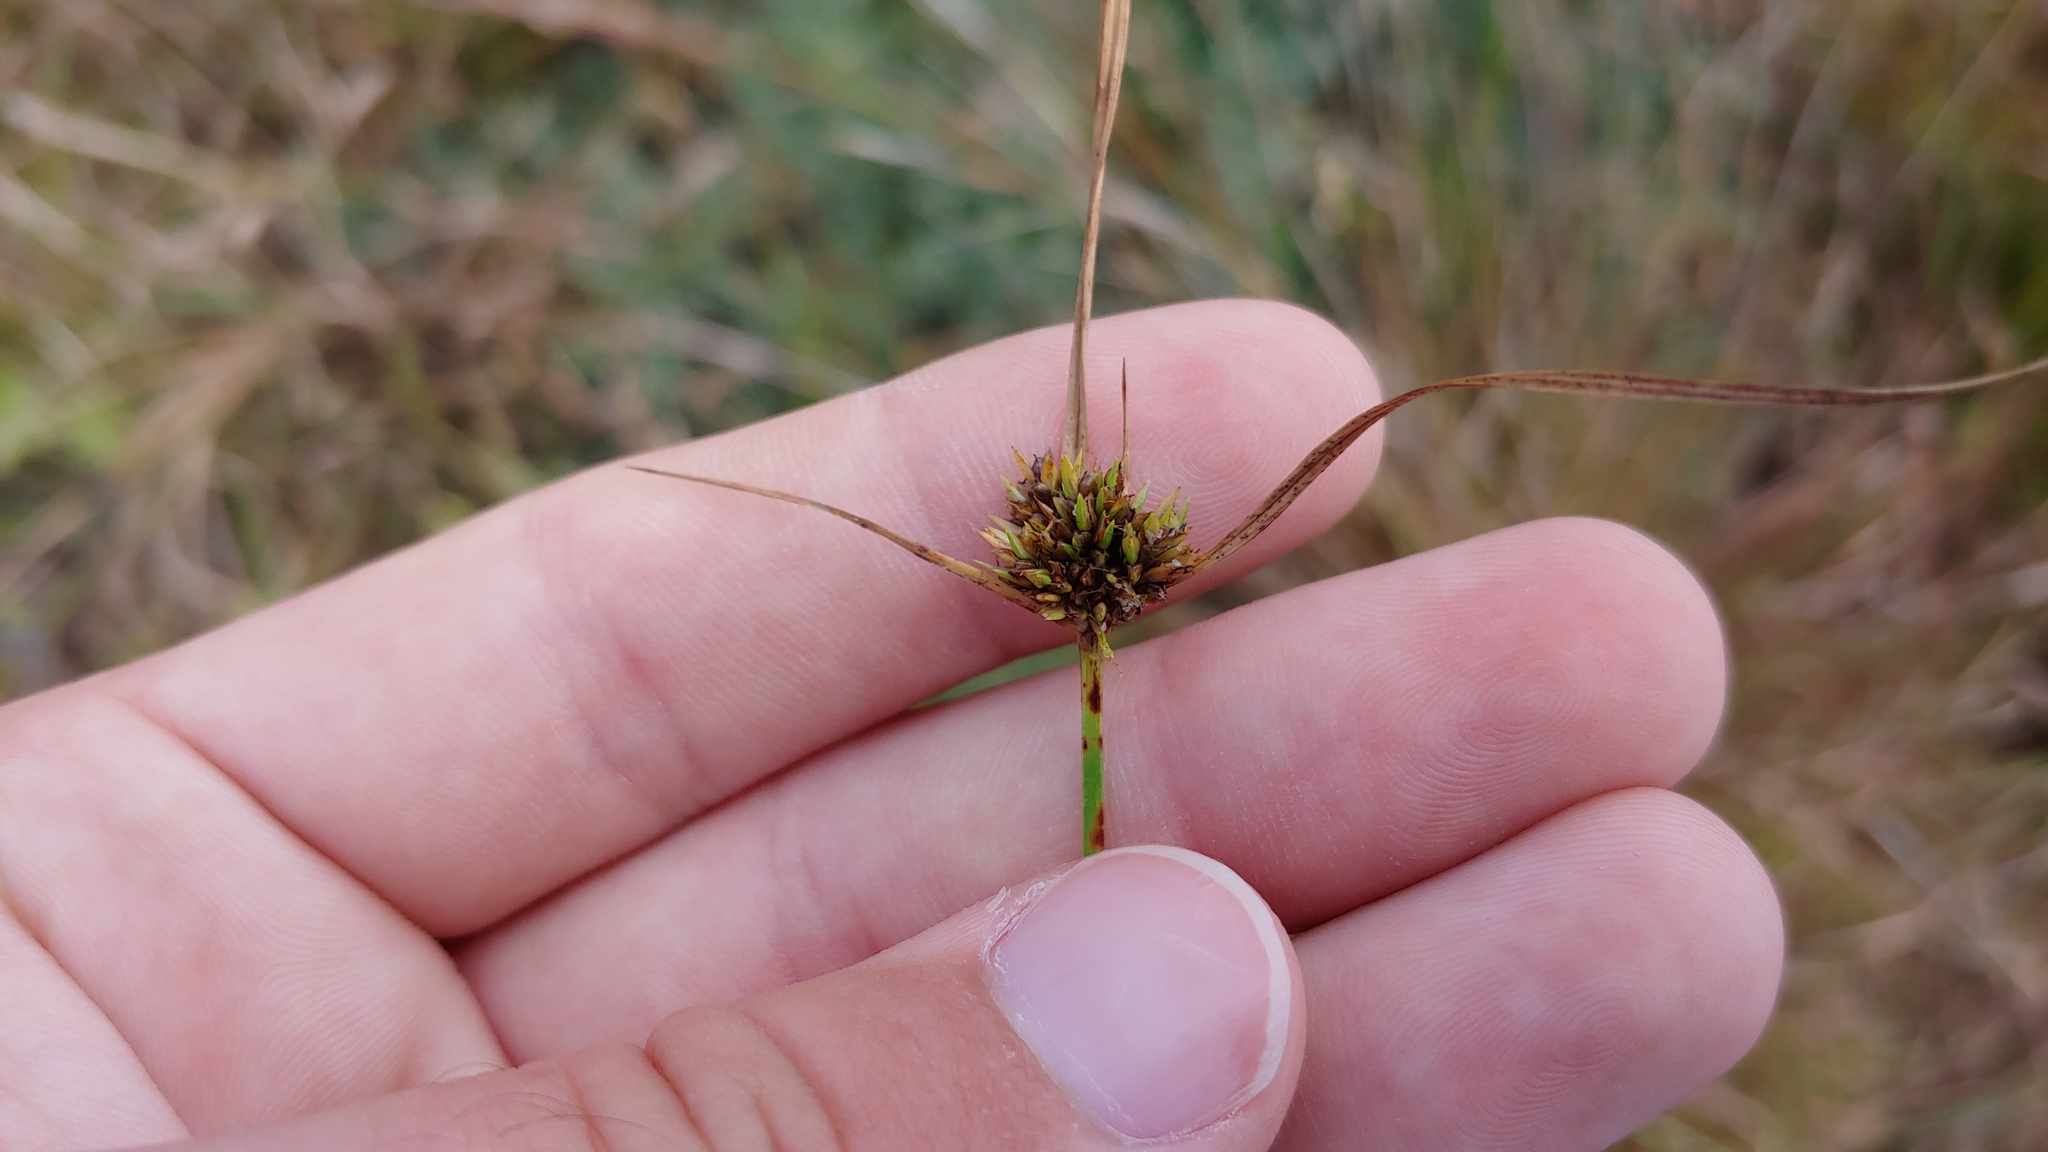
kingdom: Plantae
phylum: Tracheophyta
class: Liliopsida
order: Poales
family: Cyperaceae
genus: Cyperus
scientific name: Cyperus lupulinus
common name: Great plains flatsedge
